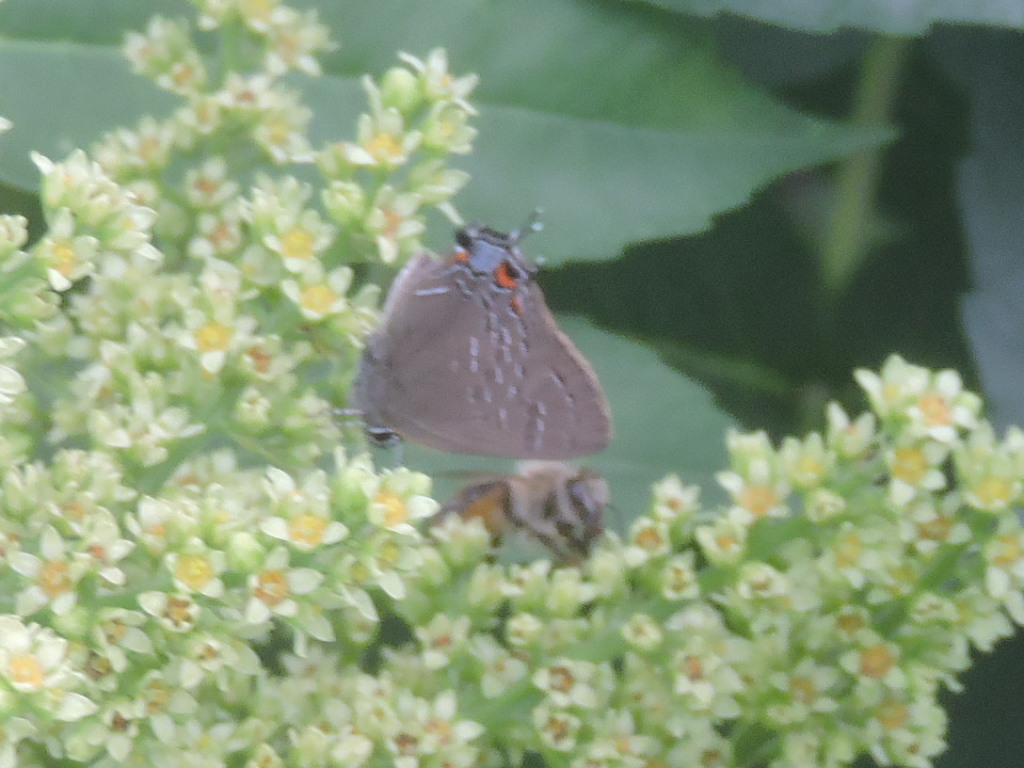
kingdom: Animalia
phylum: Arthropoda
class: Insecta
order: Lepidoptera
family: Lycaenidae
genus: Satyrium
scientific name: Satyrium calanus
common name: Banded hairstreak
